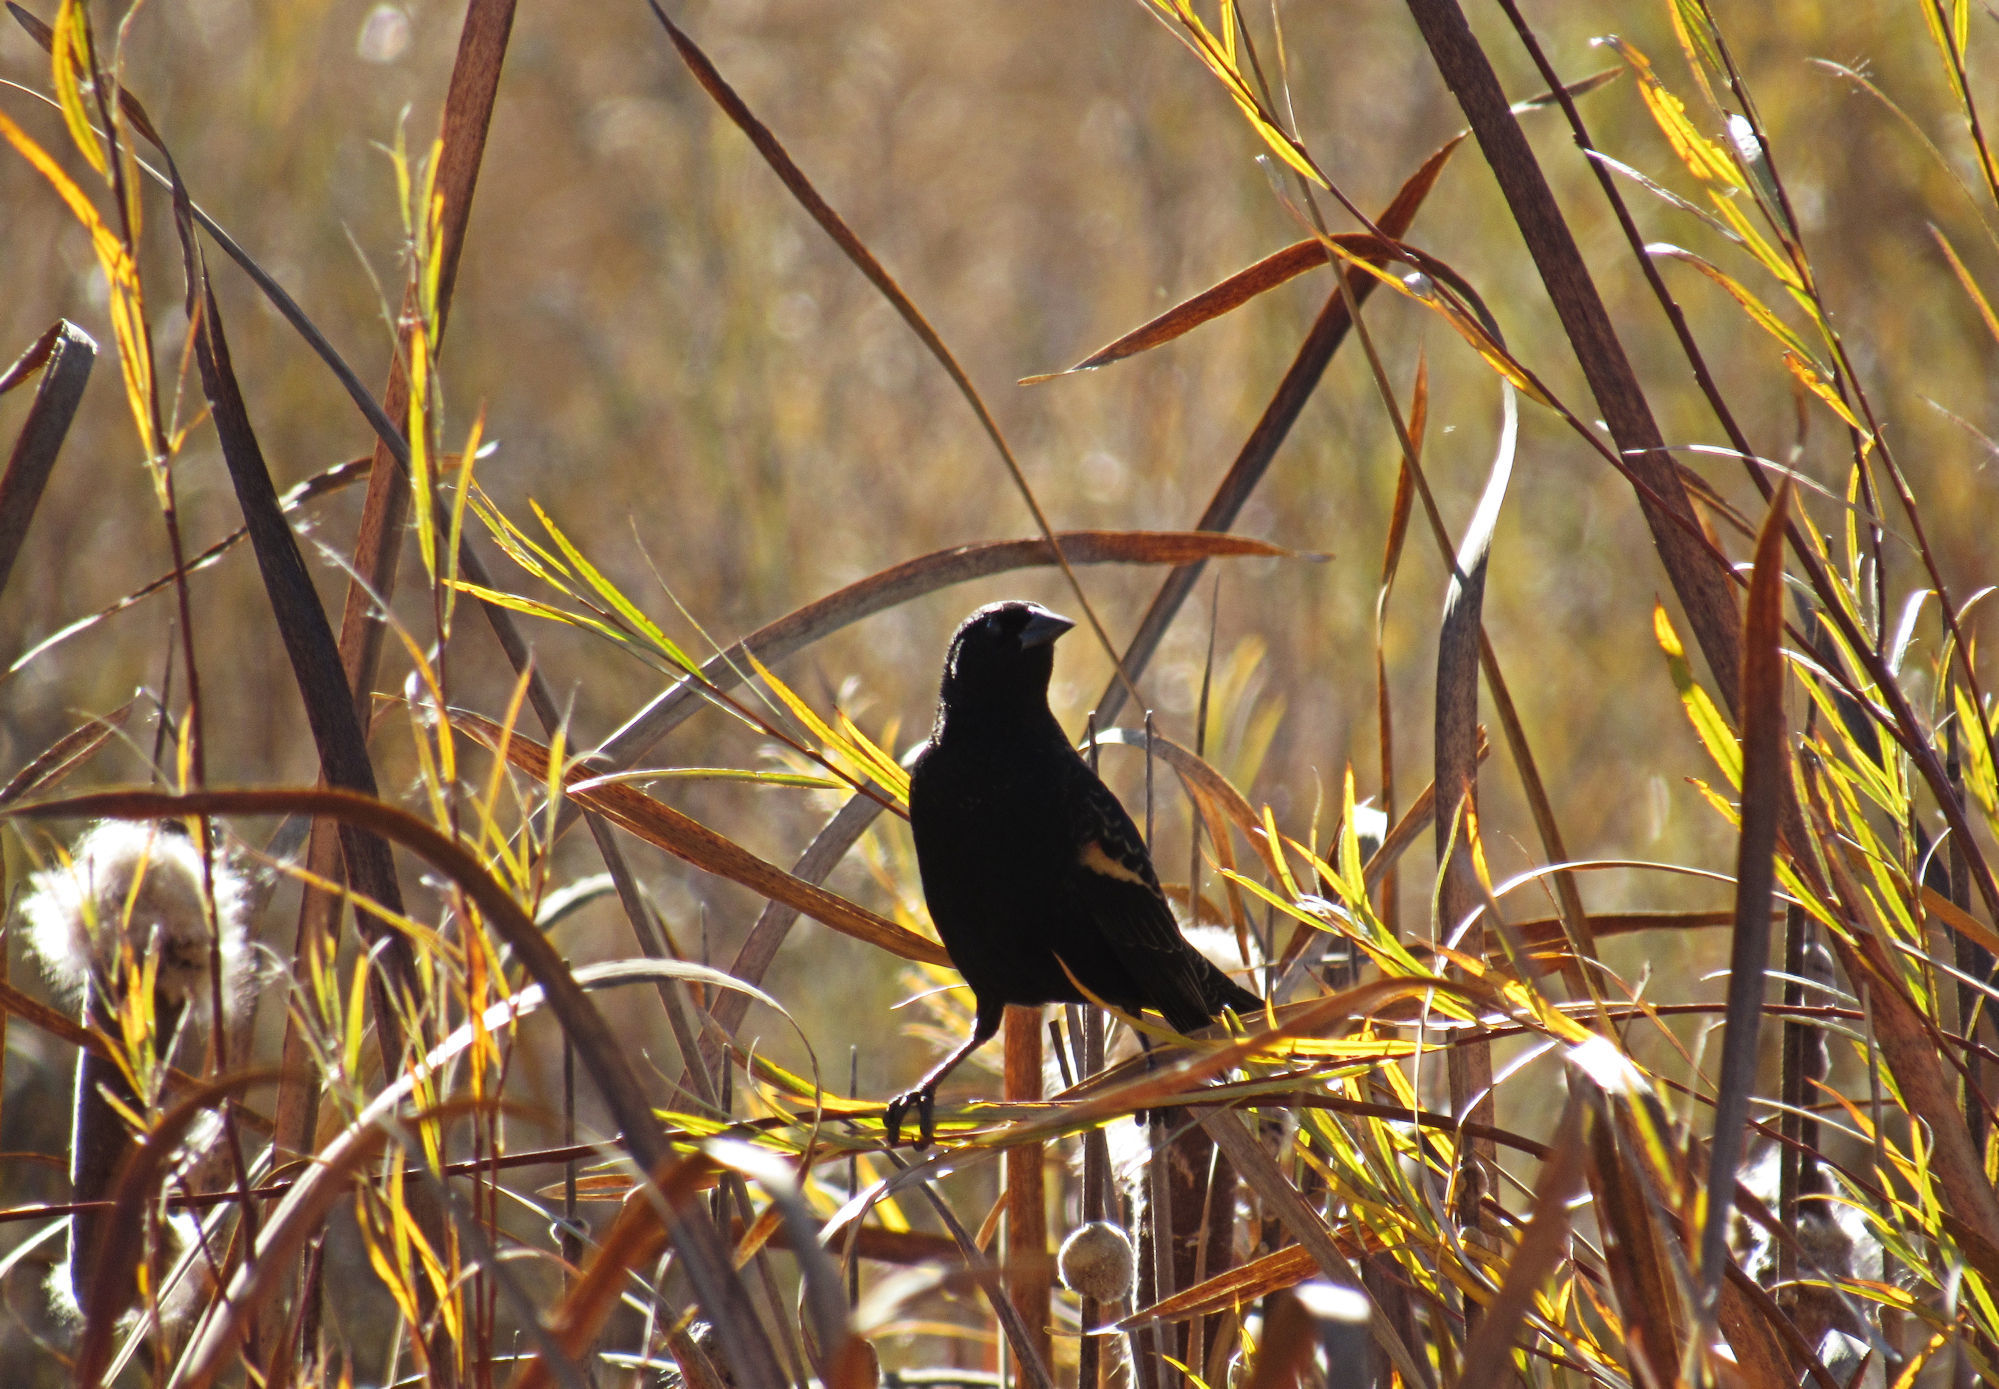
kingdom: Animalia
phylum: Chordata
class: Aves
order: Passeriformes
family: Icteridae
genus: Agelaius
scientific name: Agelaius phoeniceus
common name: Red-winged blackbird
